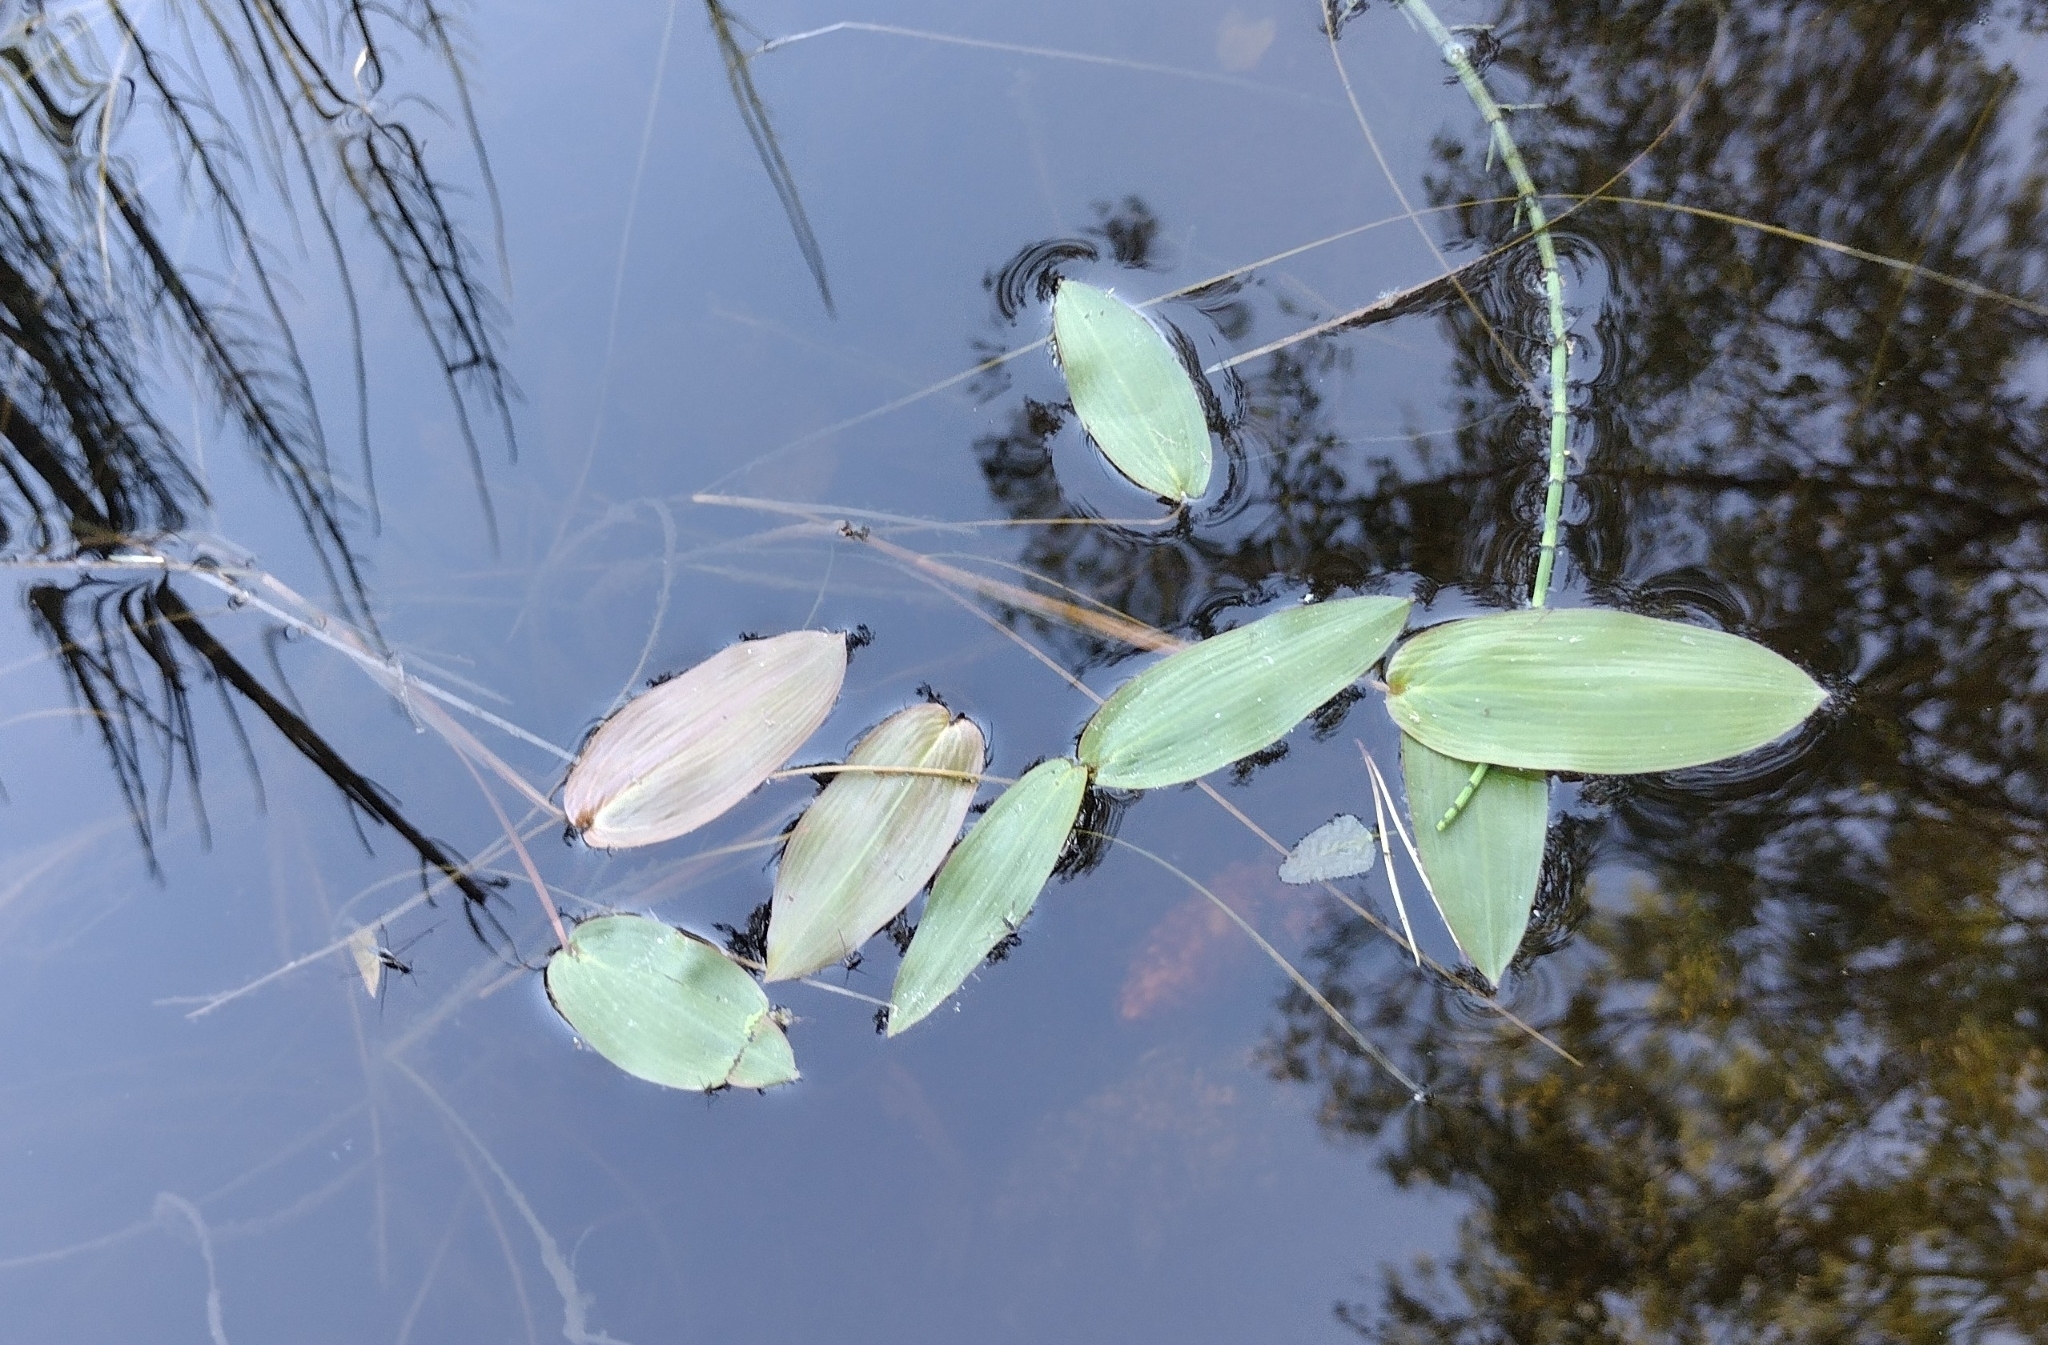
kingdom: Plantae
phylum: Tracheophyta
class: Liliopsida
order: Alismatales
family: Potamogetonaceae
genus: Potamogeton
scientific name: Potamogeton natans
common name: Broad-leaved pondweed
